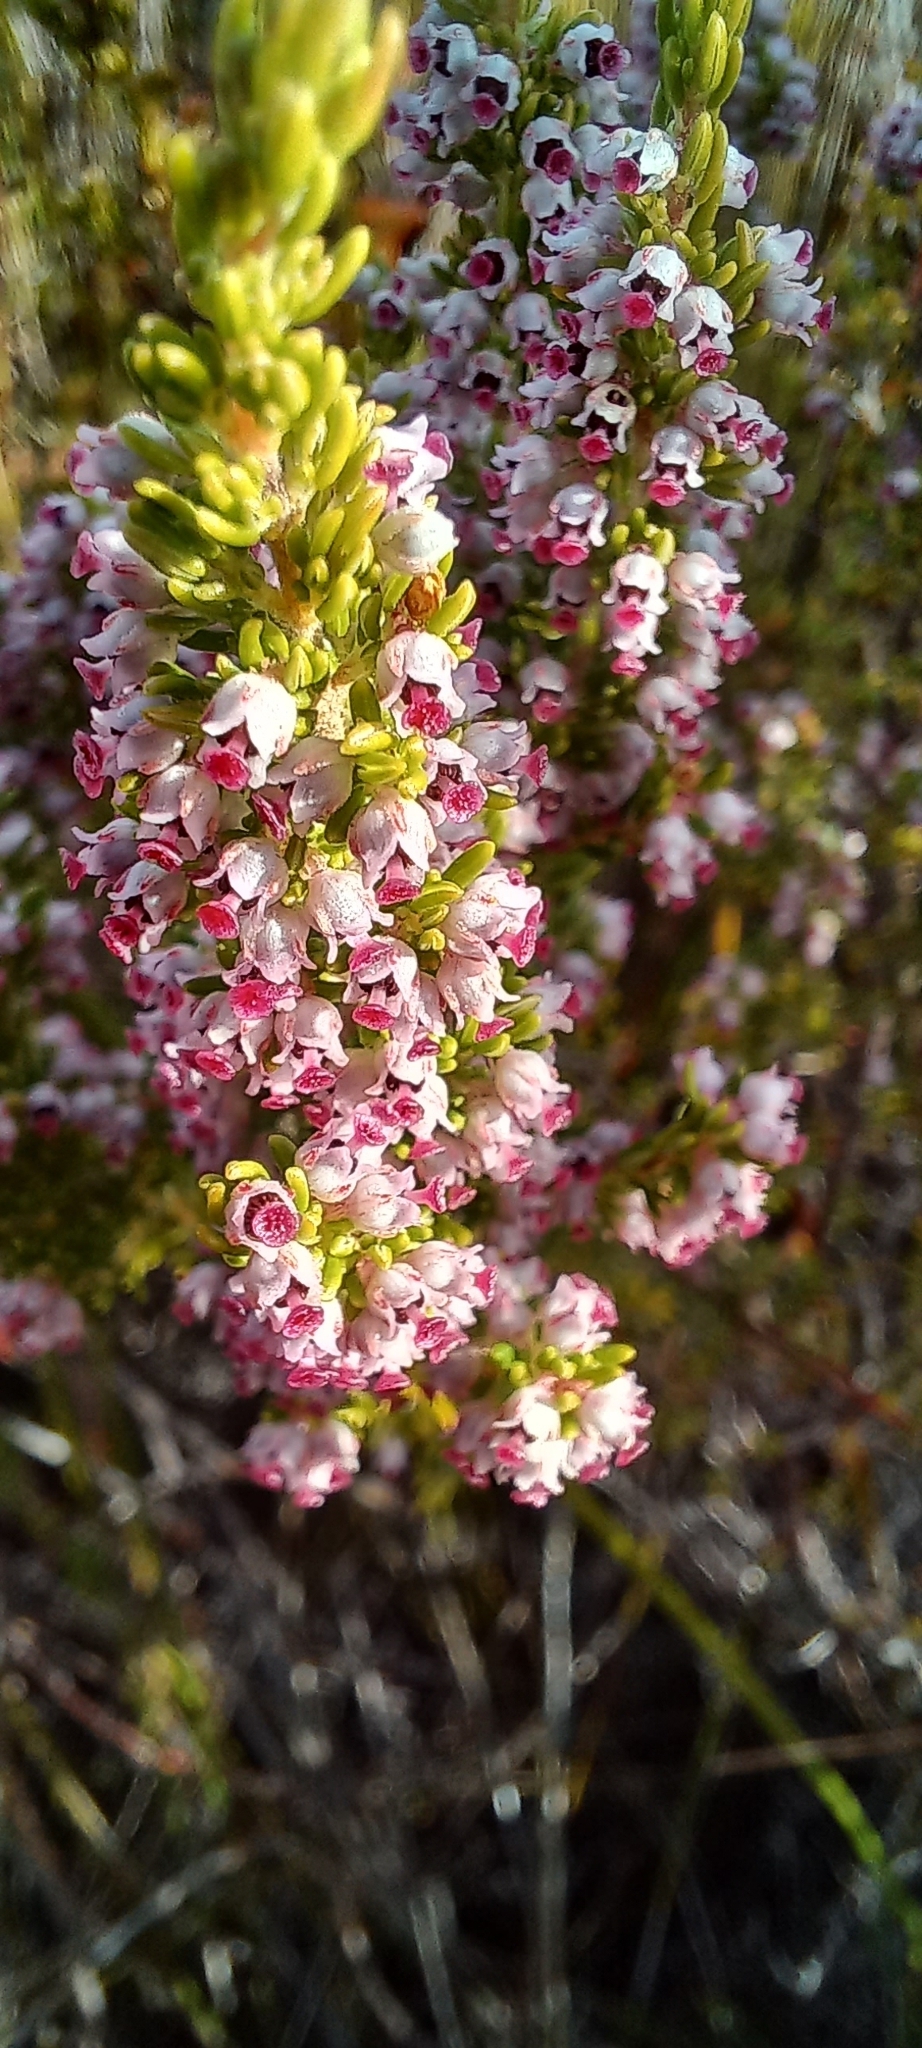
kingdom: Plantae
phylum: Tracheophyta
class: Magnoliopsida
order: Ericales
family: Ericaceae
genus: Erica
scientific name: Erica hispidula
